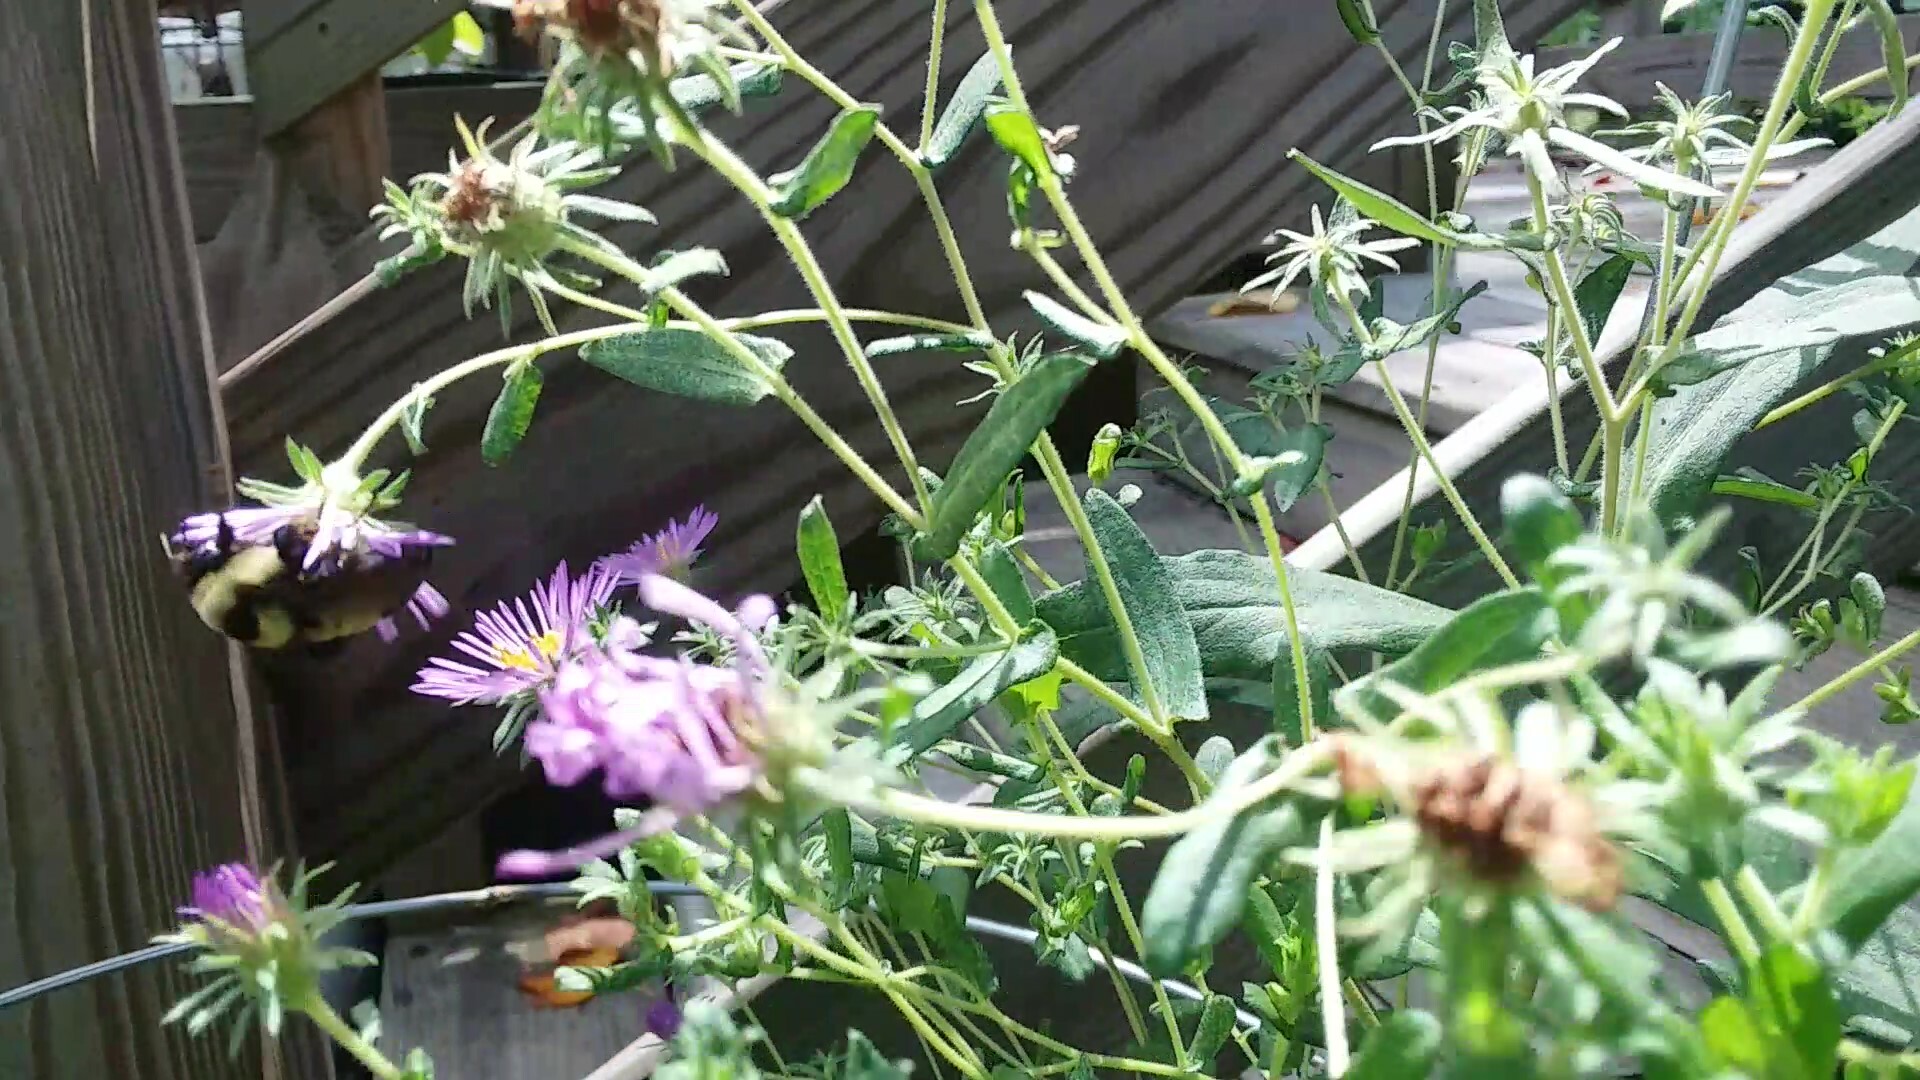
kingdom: Animalia
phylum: Arthropoda
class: Insecta
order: Hymenoptera
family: Apidae
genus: Bombus
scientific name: Bombus fraternus
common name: Southern plains bumble bee
